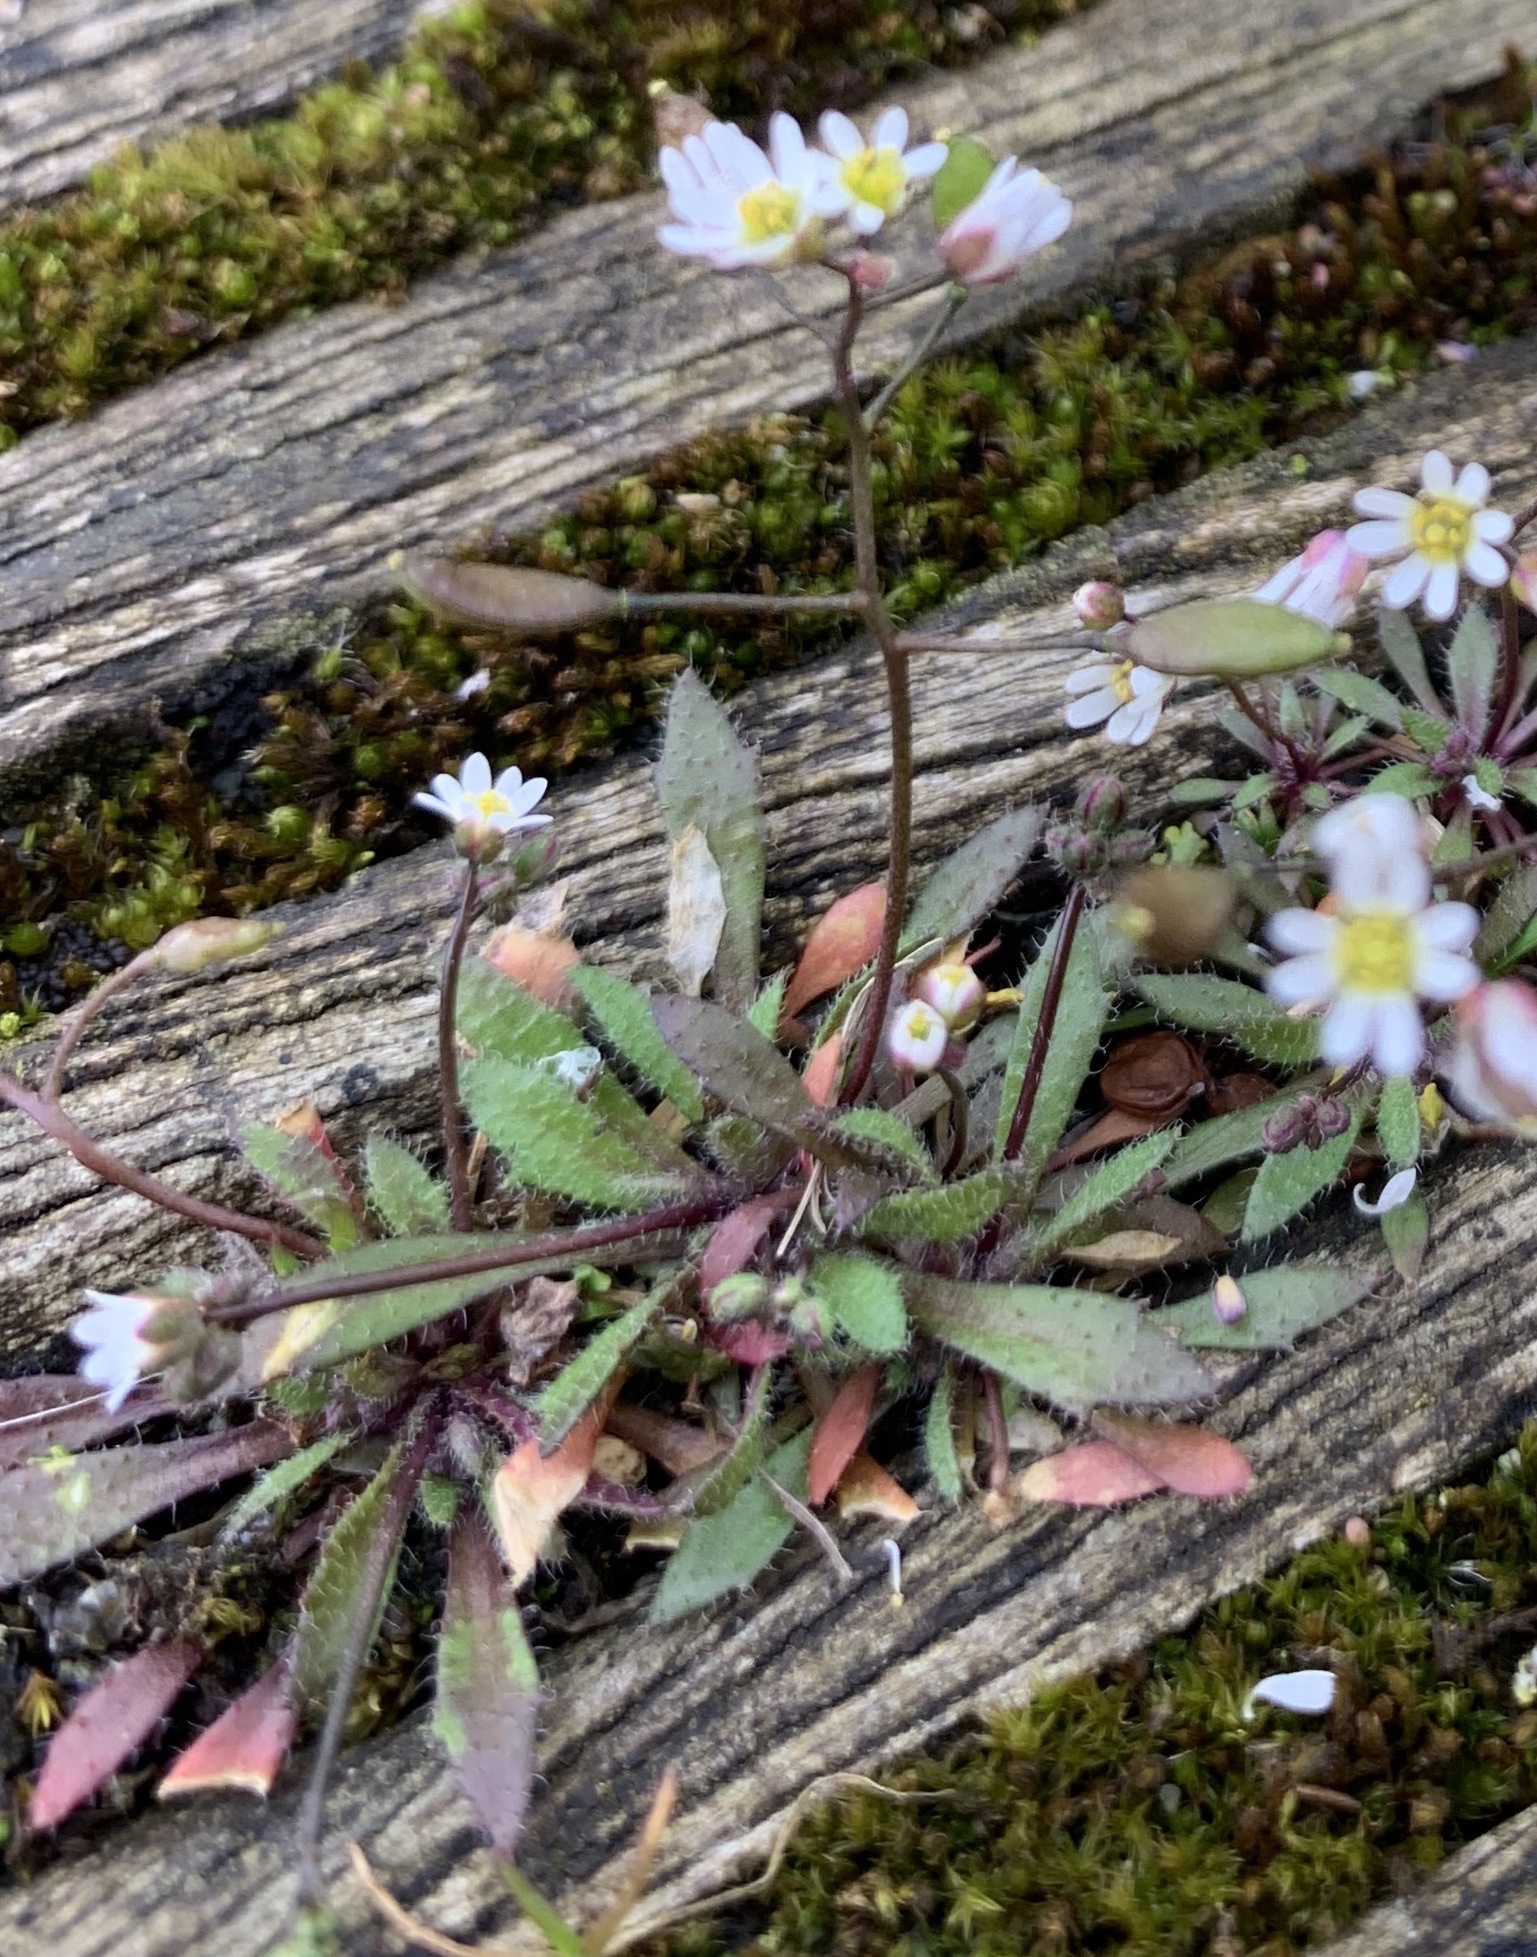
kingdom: Plantae
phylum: Tracheophyta
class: Magnoliopsida
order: Brassicales
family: Brassicaceae
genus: Draba
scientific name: Draba verna
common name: Spring draba
